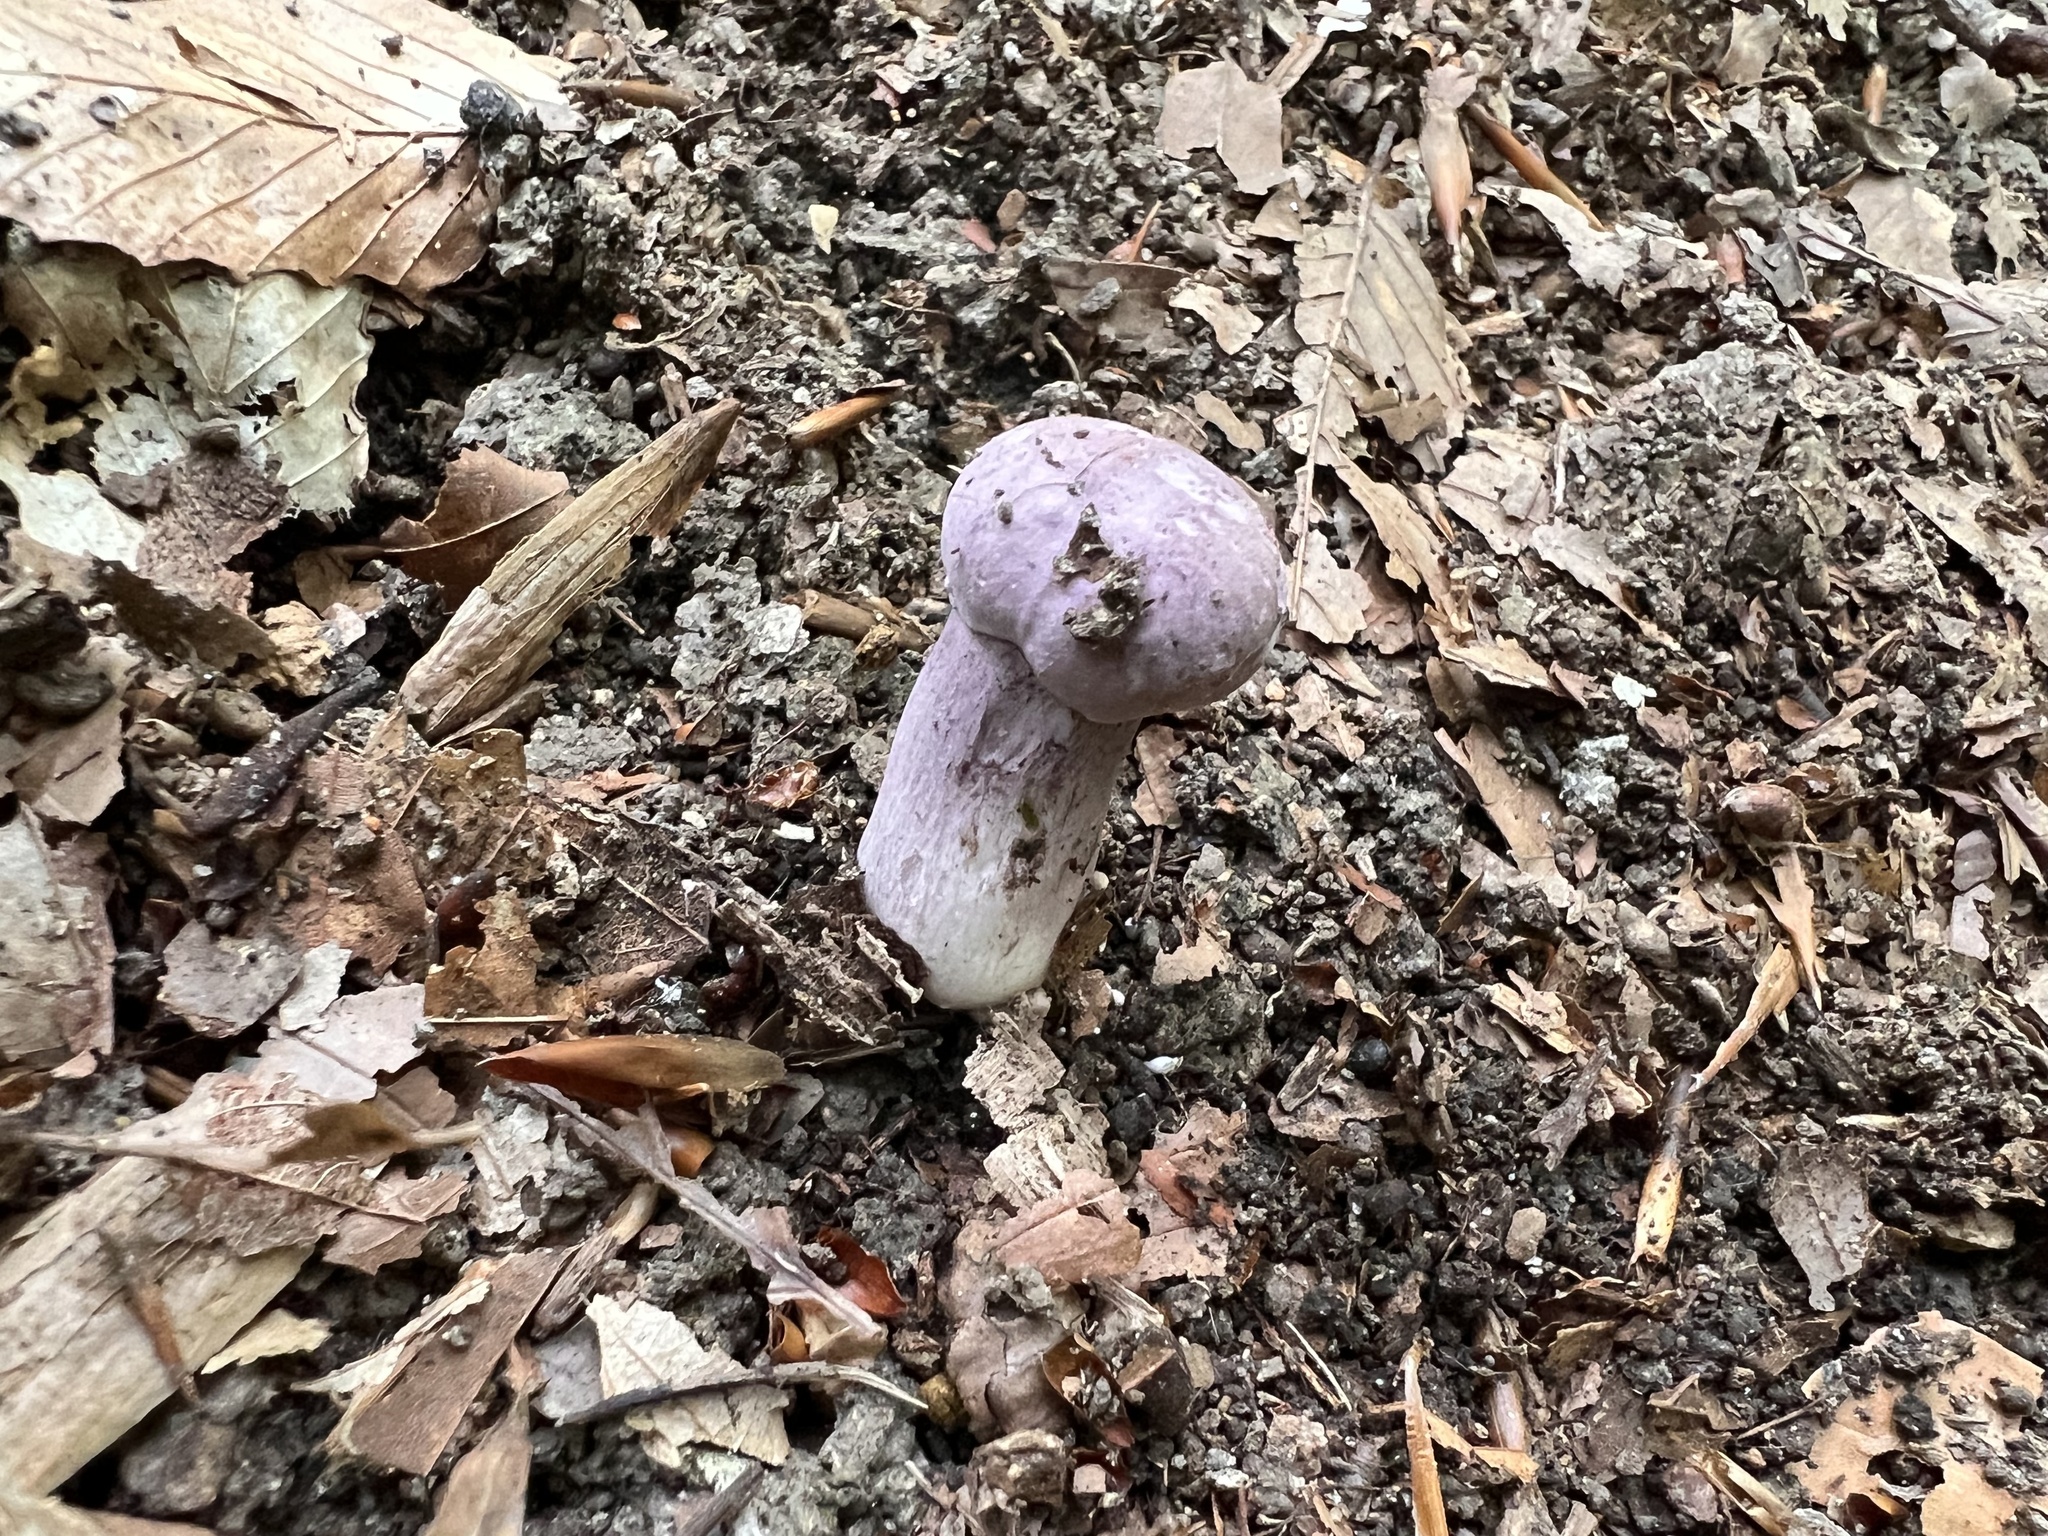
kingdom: Fungi
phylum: Basidiomycota
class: Agaricomycetes
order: Boletales
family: Boletaceae
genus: Tylopilus
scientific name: Tylopilus plumbeoviolaceus
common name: Violet gray bolete
